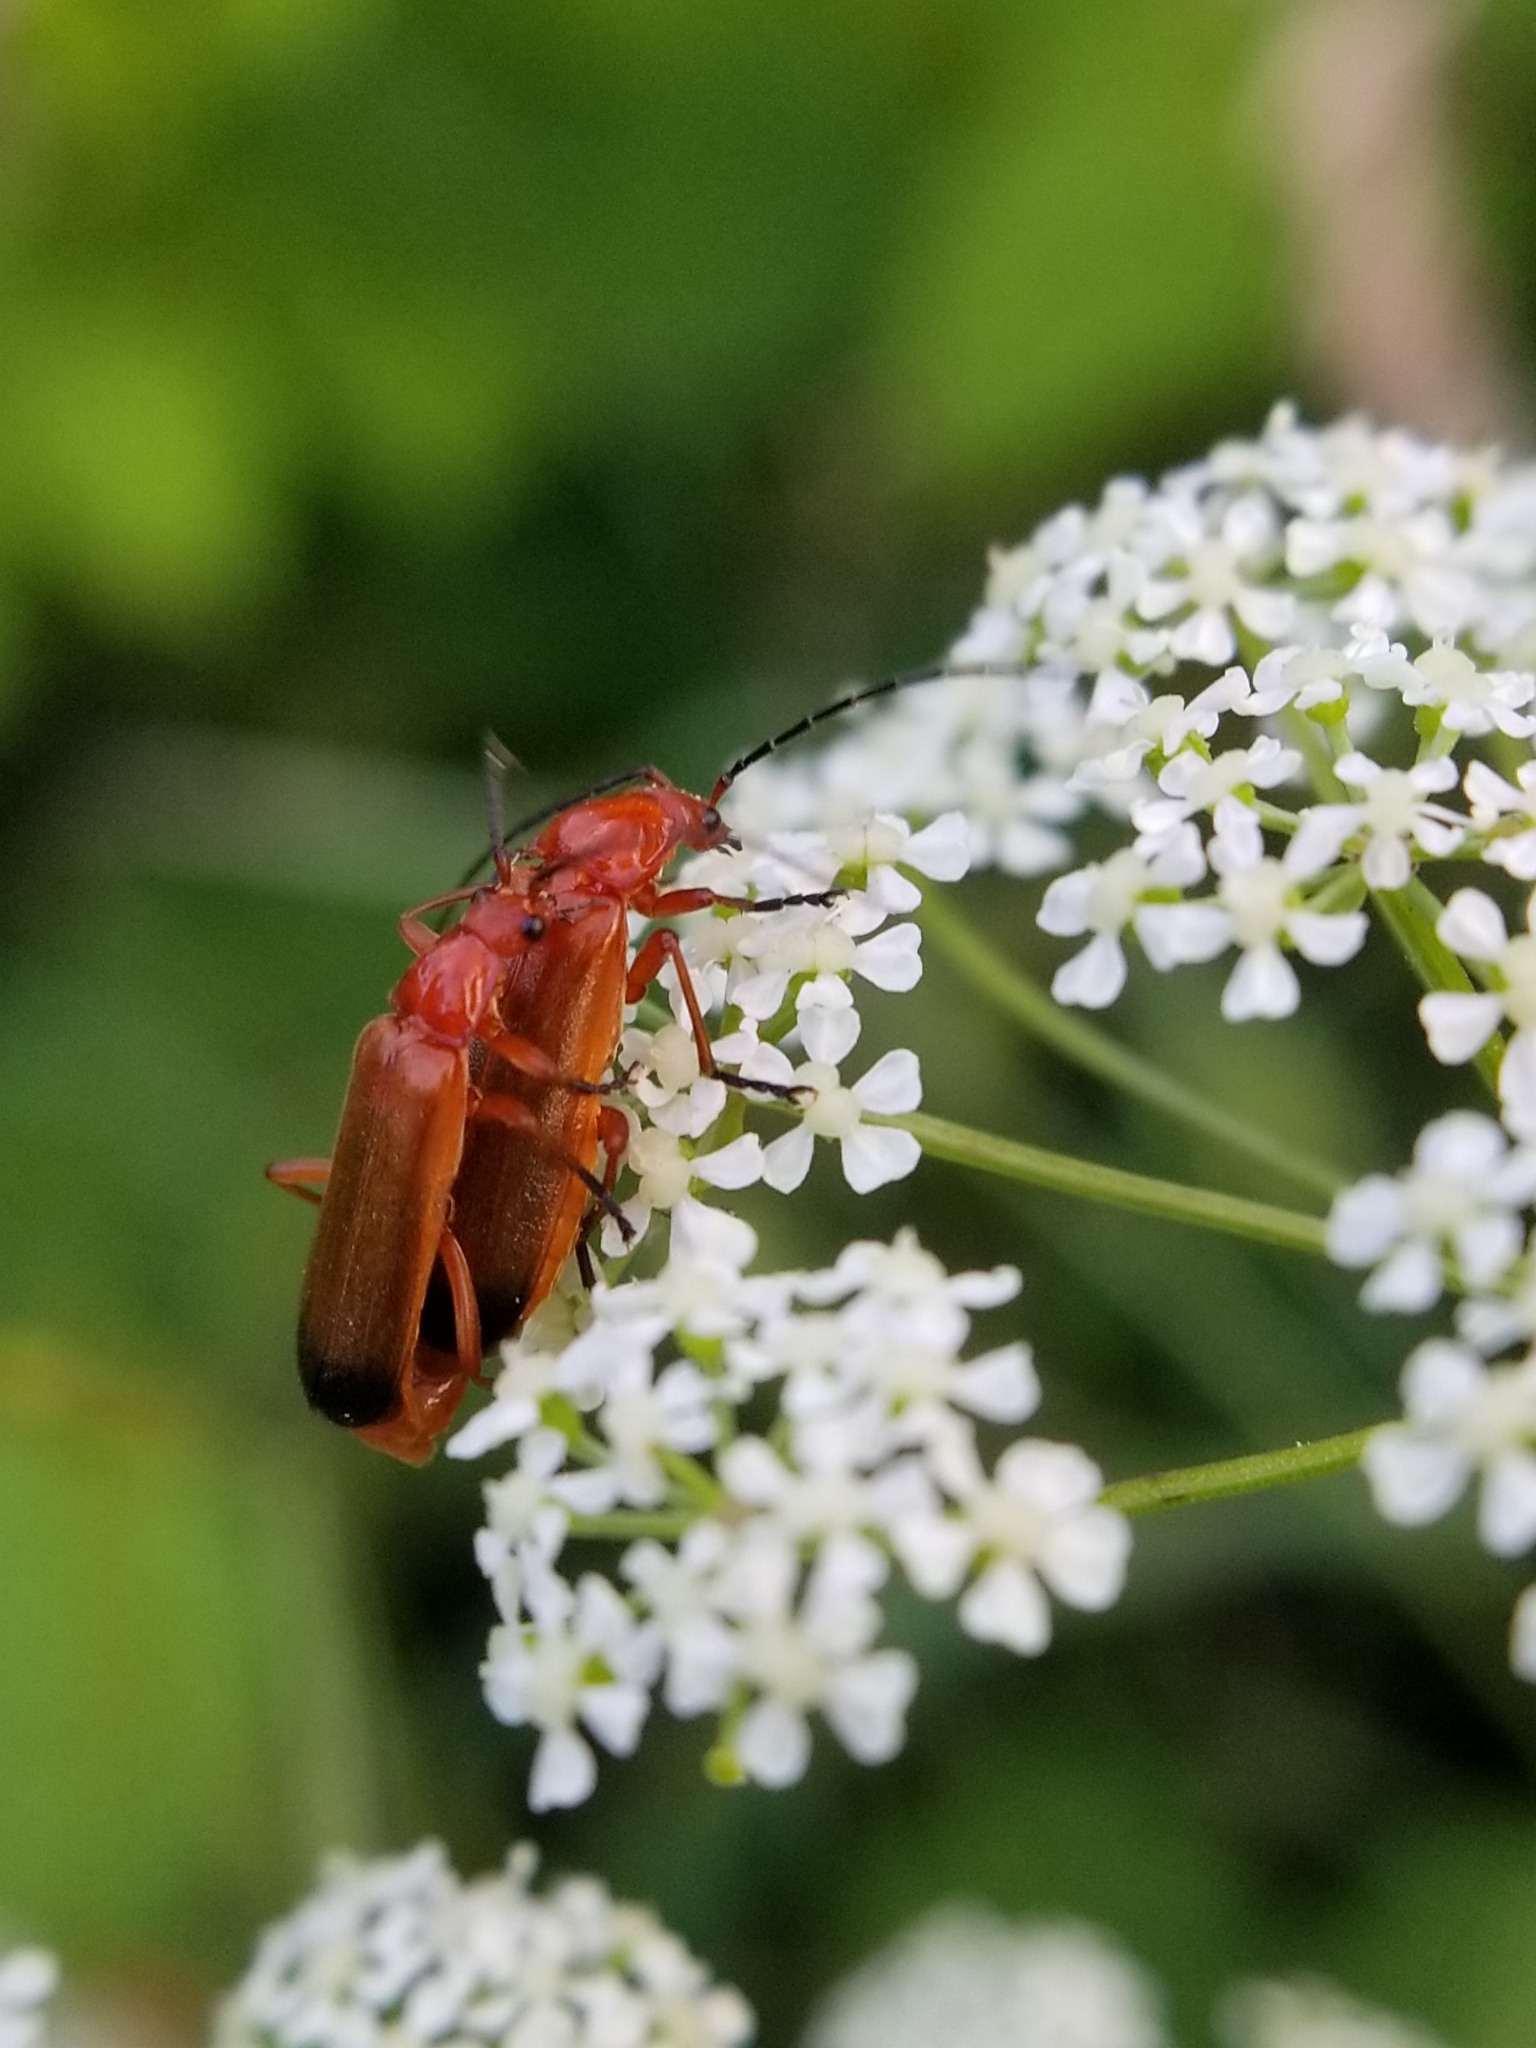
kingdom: Animalia
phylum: Arthropoda
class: Insecta
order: Coleoptera
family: Cantharidae
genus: Rhagonycha
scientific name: Rhagonycha fulva
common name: Common red soldier beetle
